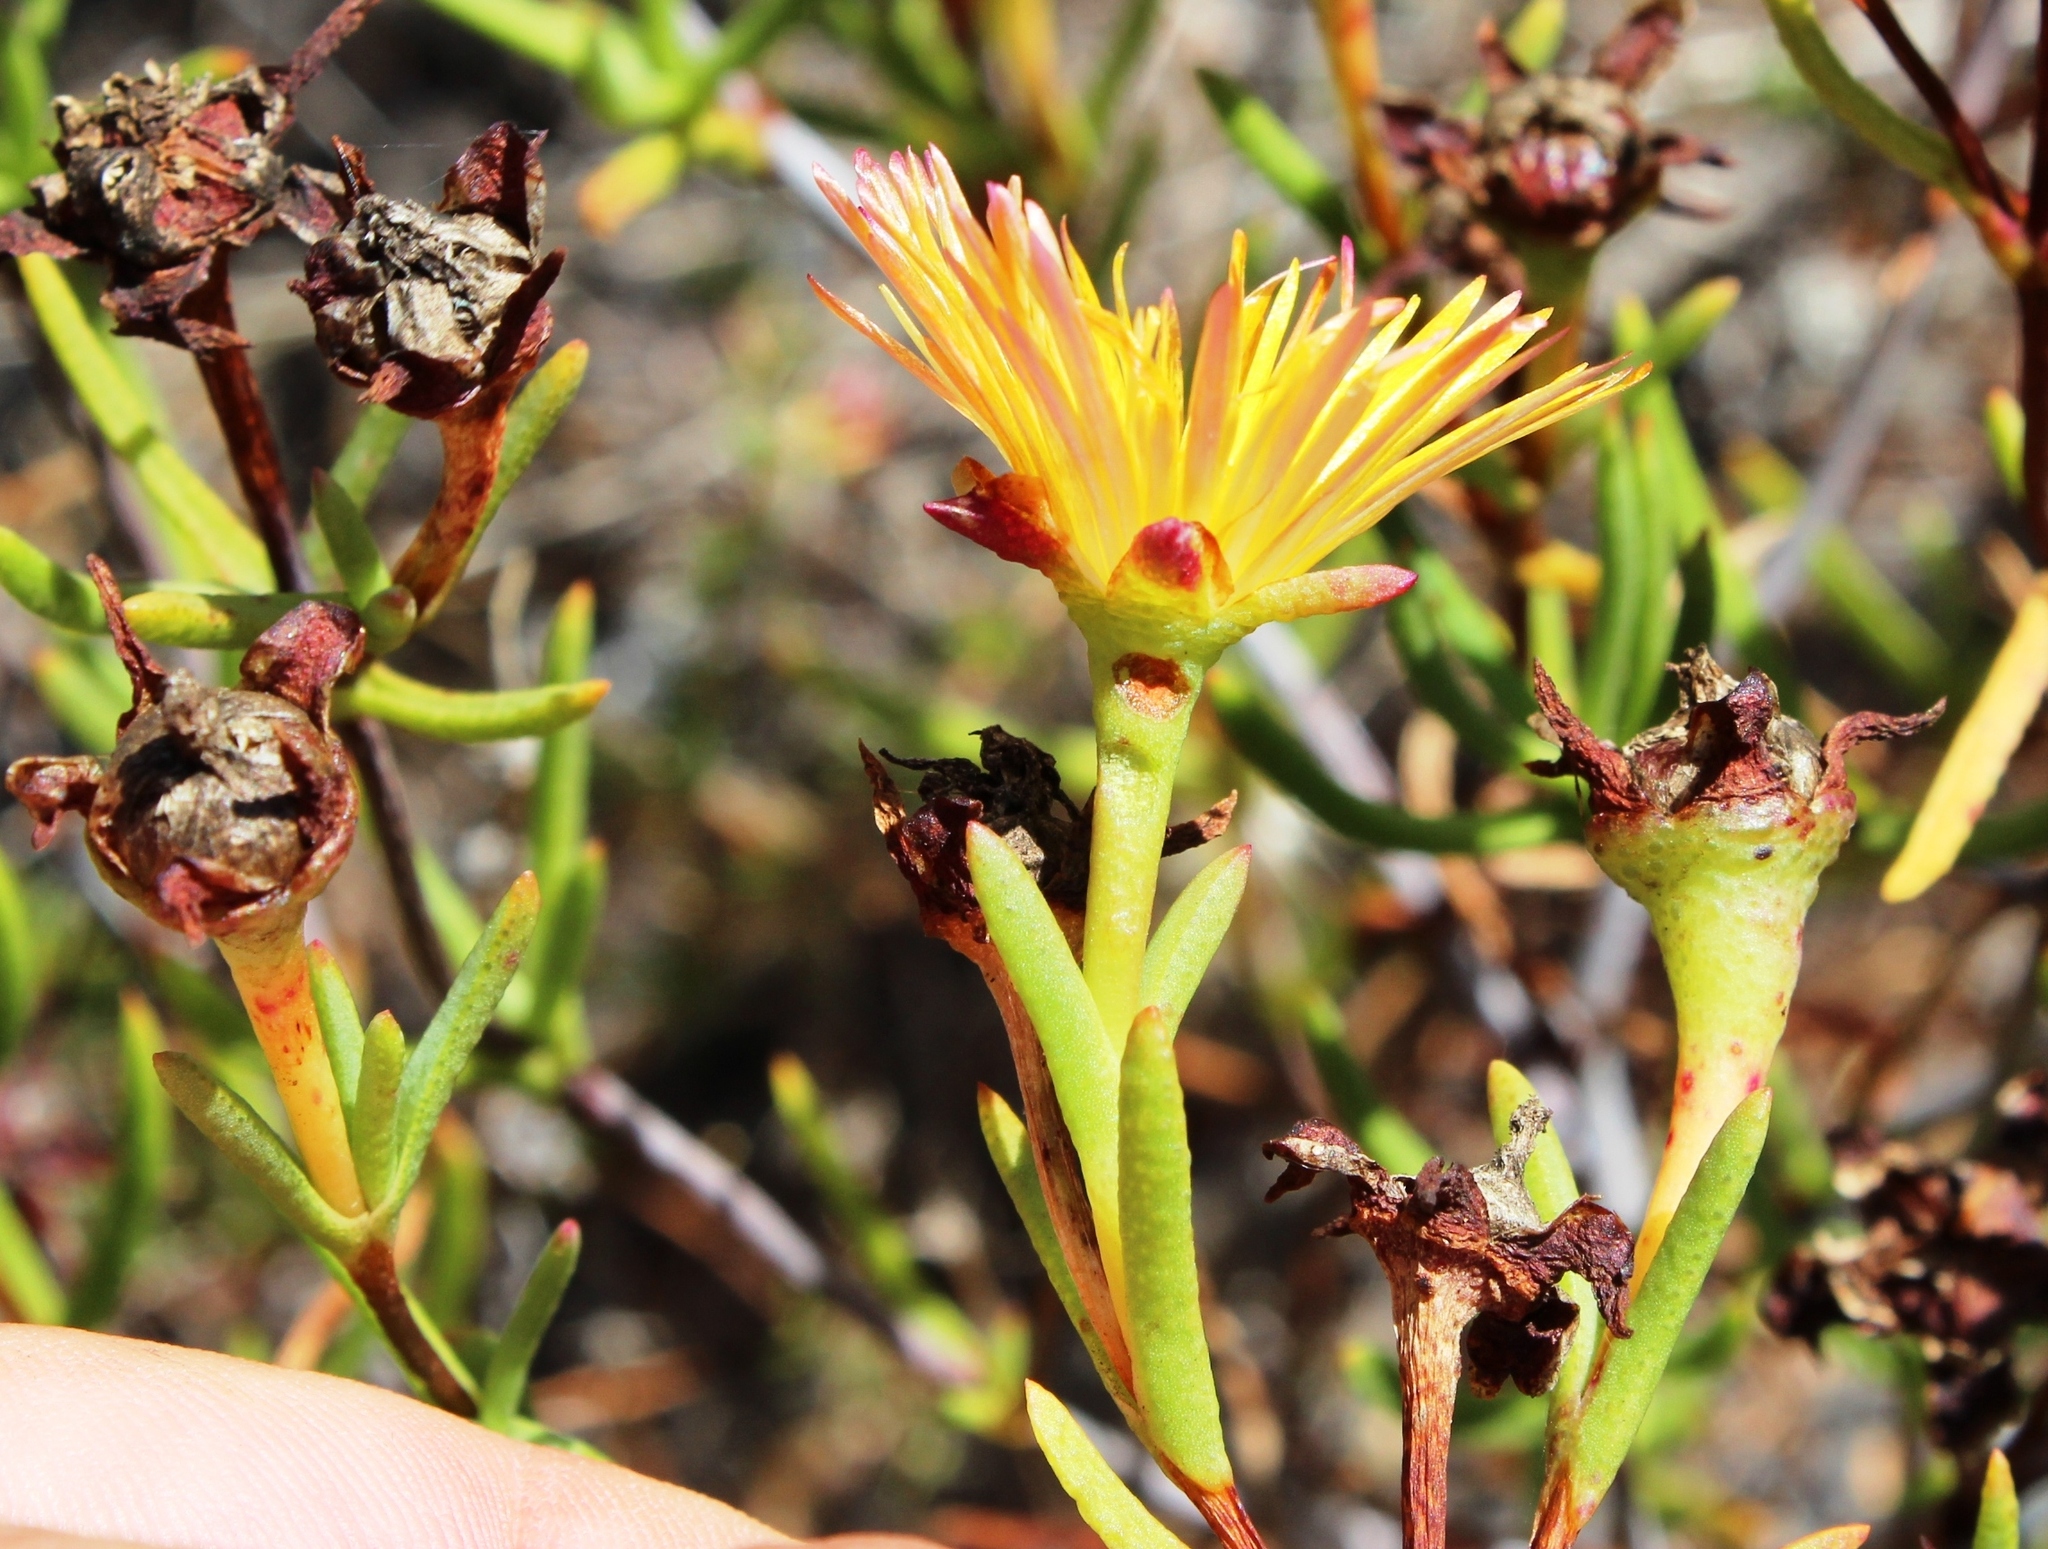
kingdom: Plantae
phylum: Tracheophyta
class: Magnoliopsida
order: Caryophyllales
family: Aizoaceae
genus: Lampranthus
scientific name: Lampranthus bicolor
